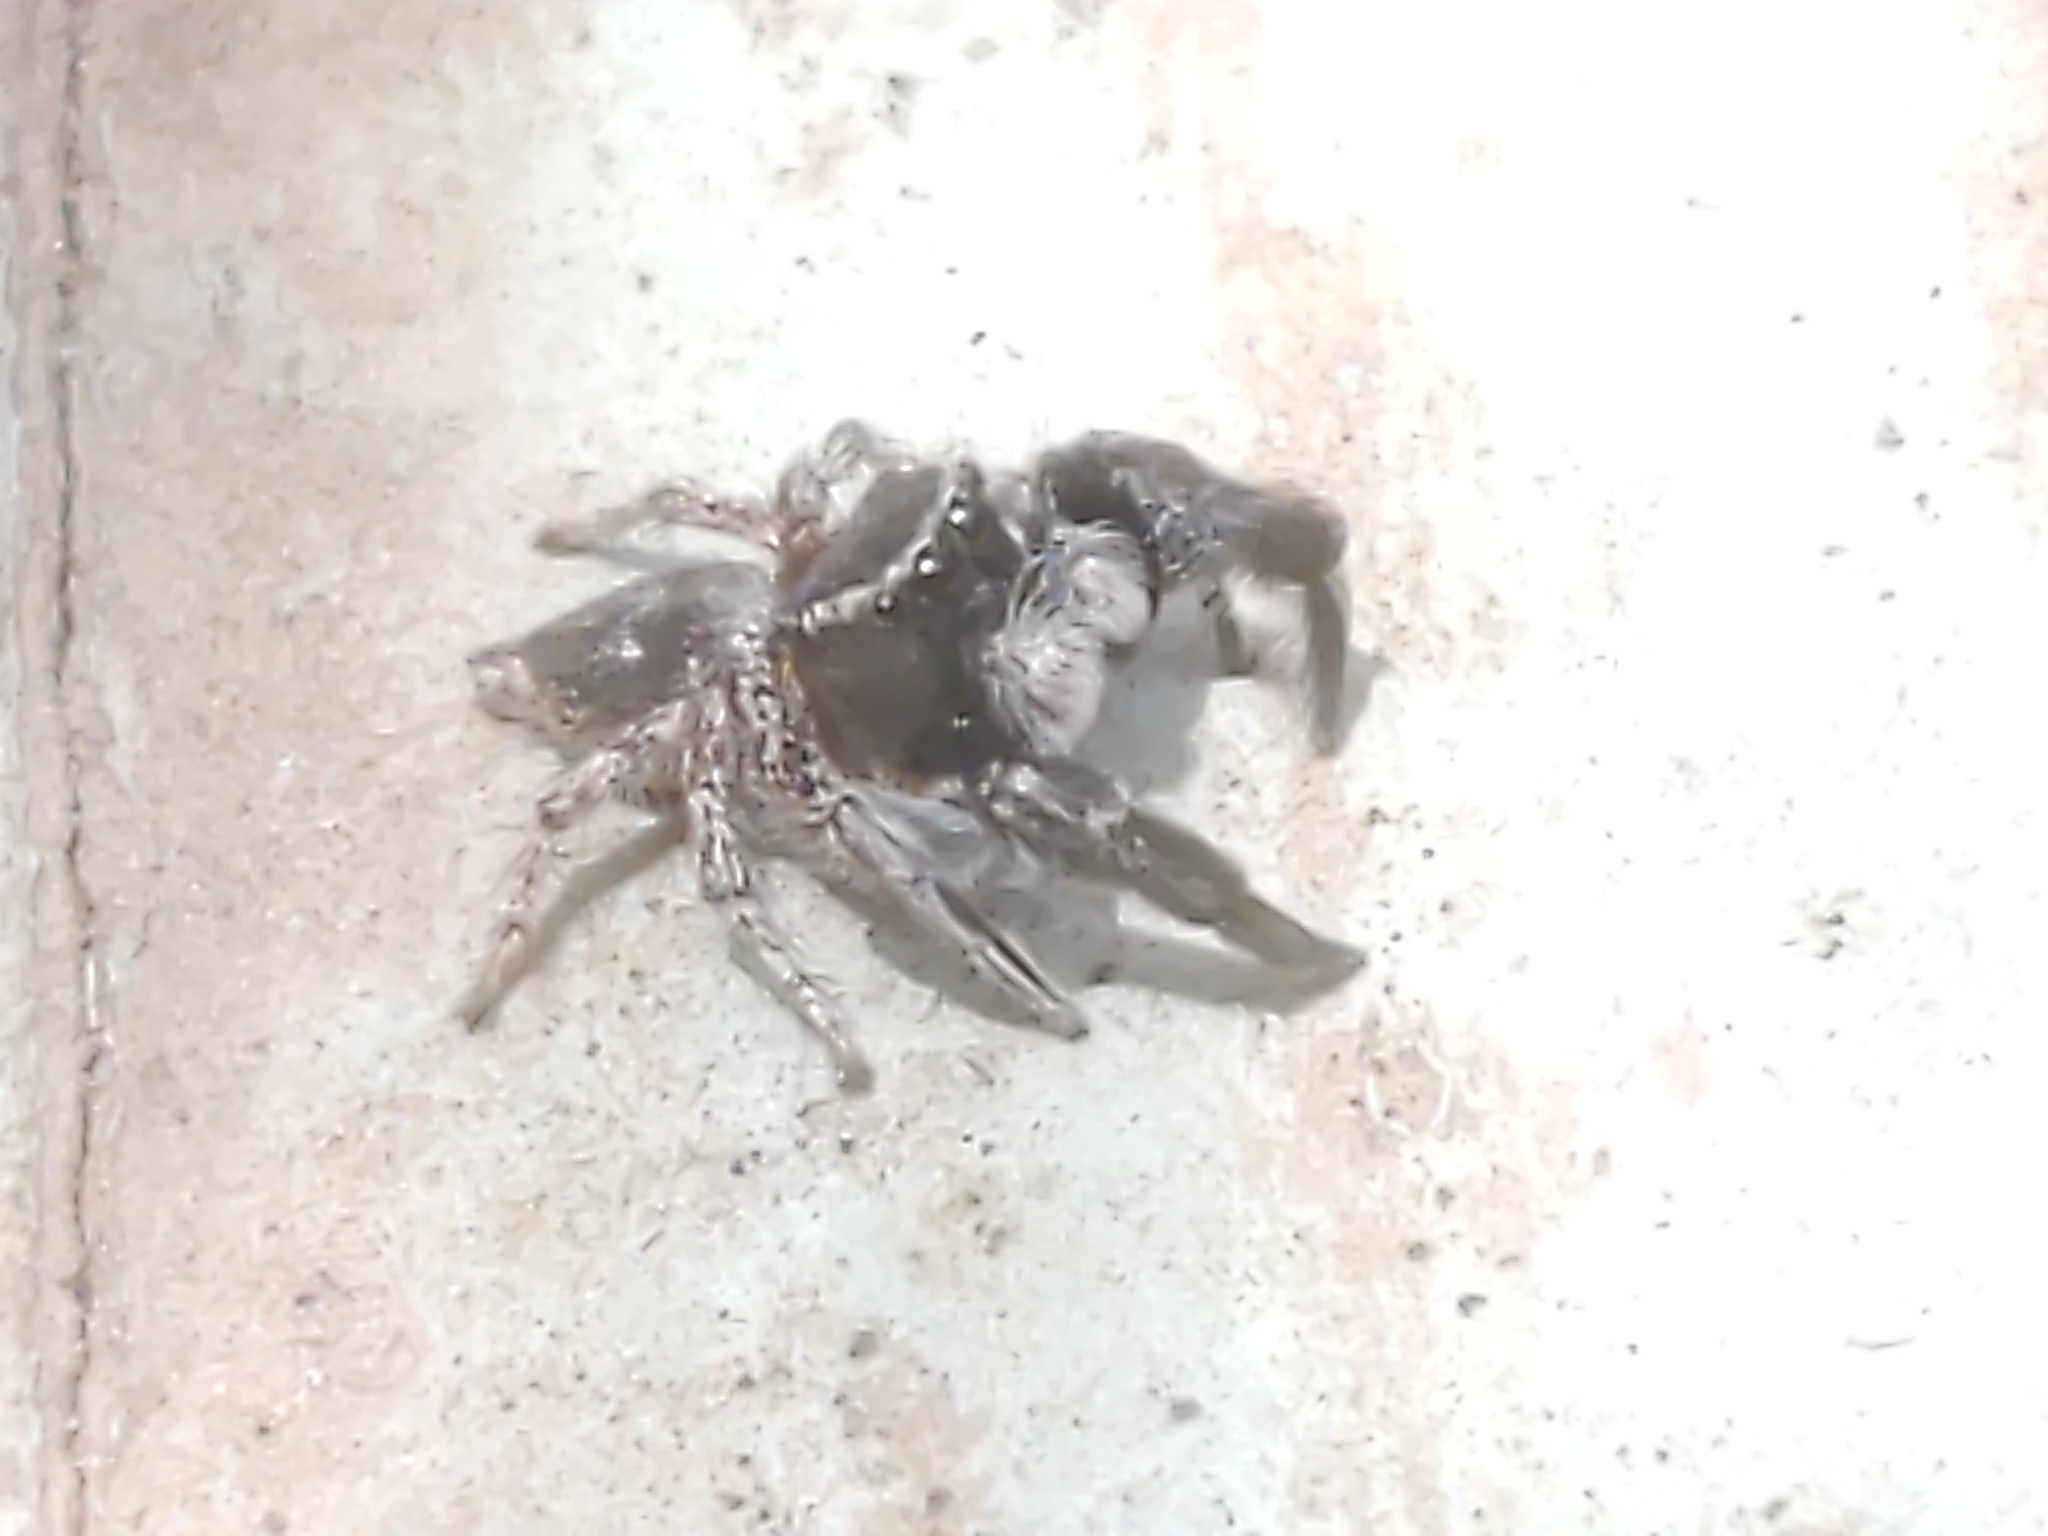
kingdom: Animalia
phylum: Arthropoda
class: Arachnida
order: Araneae
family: Salticidae
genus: Habronattus
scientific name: Habronattus hirsutus
